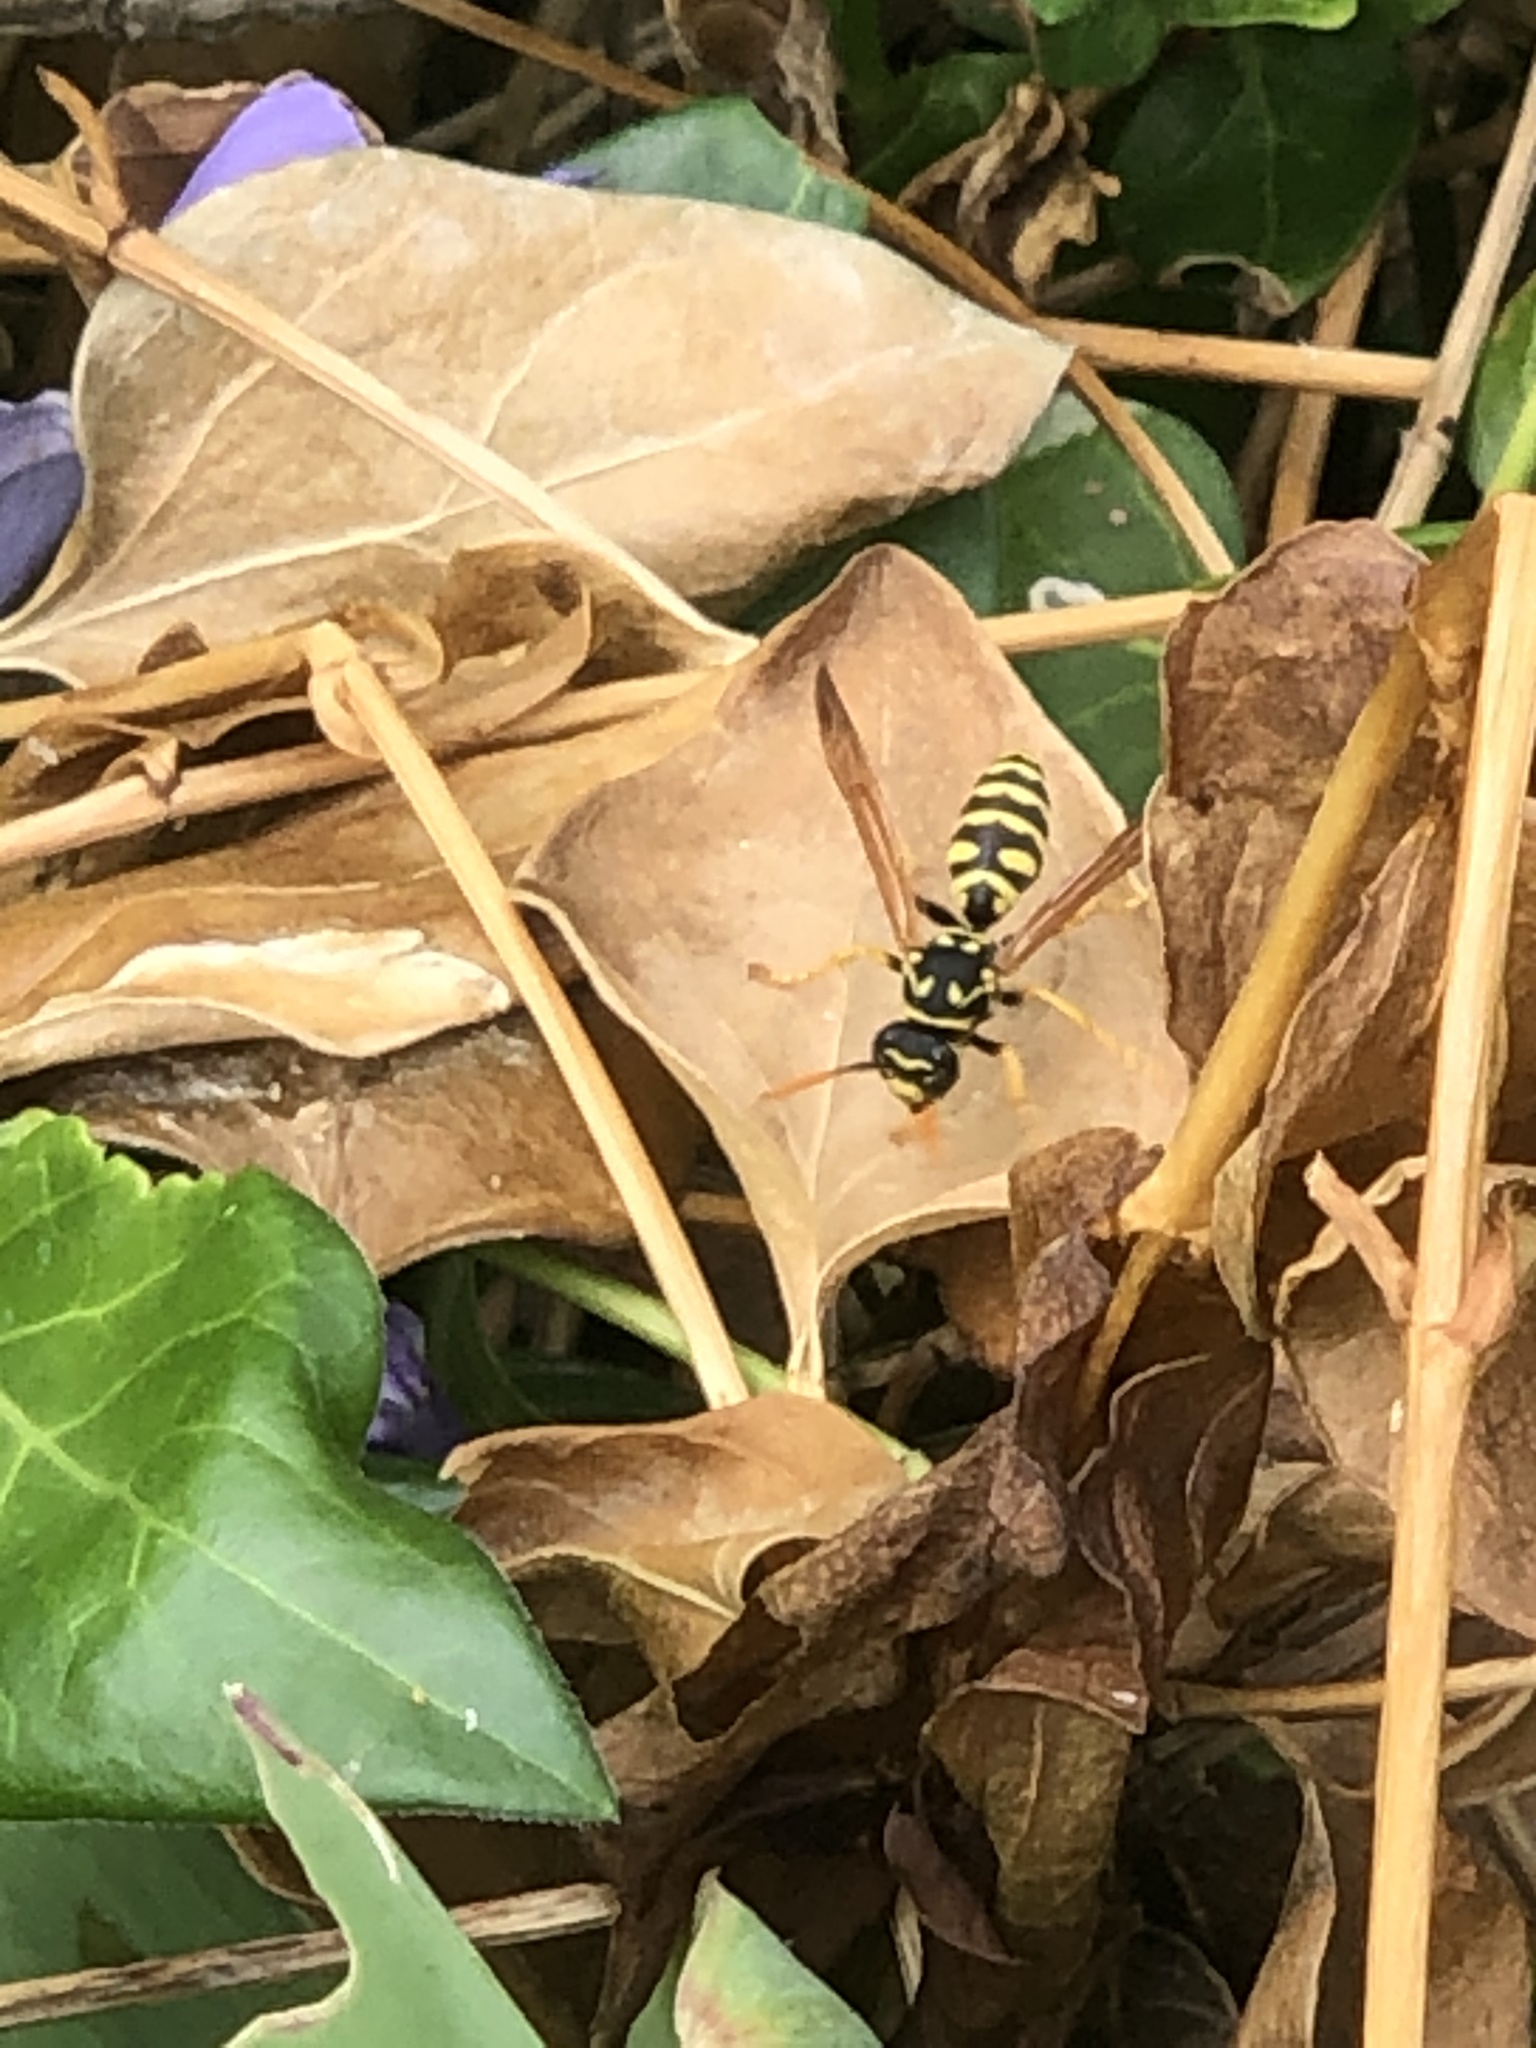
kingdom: Animalia
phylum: Arthropoda
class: Insecta
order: Hymenoptera
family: Eumenidae
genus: Polistes
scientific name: Polistes dominula
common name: Paper wasp
